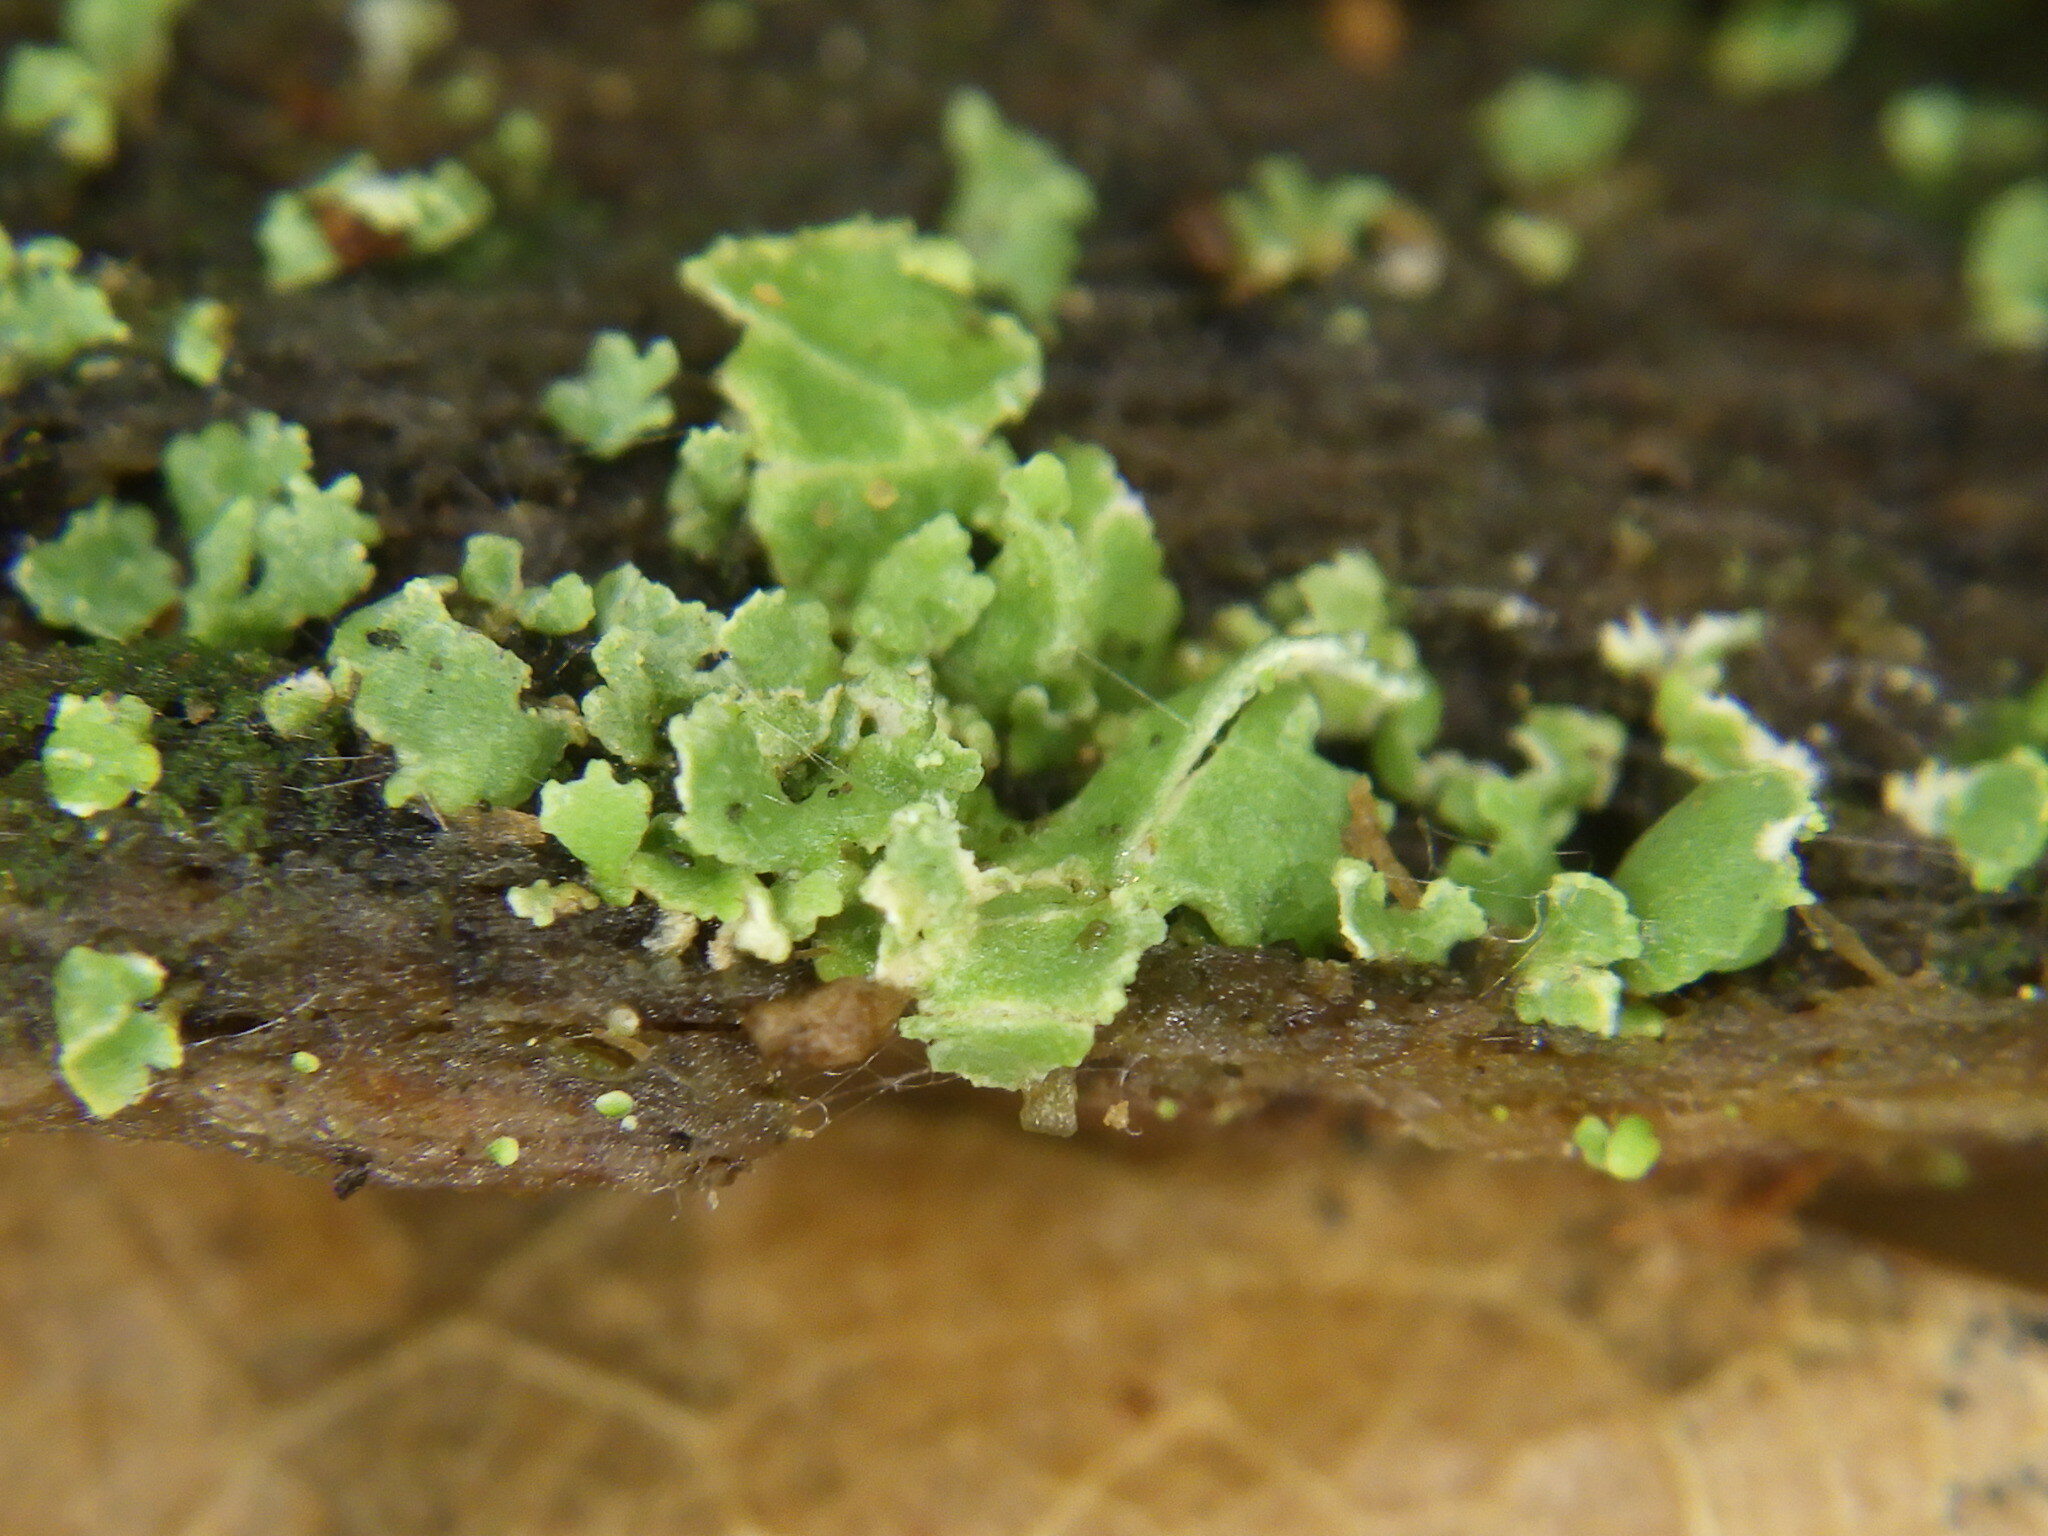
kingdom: Fungi
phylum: Ascomycota
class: Lecanoromycetes
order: Lecanorales
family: Cladoniaceae
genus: Cladonia
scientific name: Cladonia
